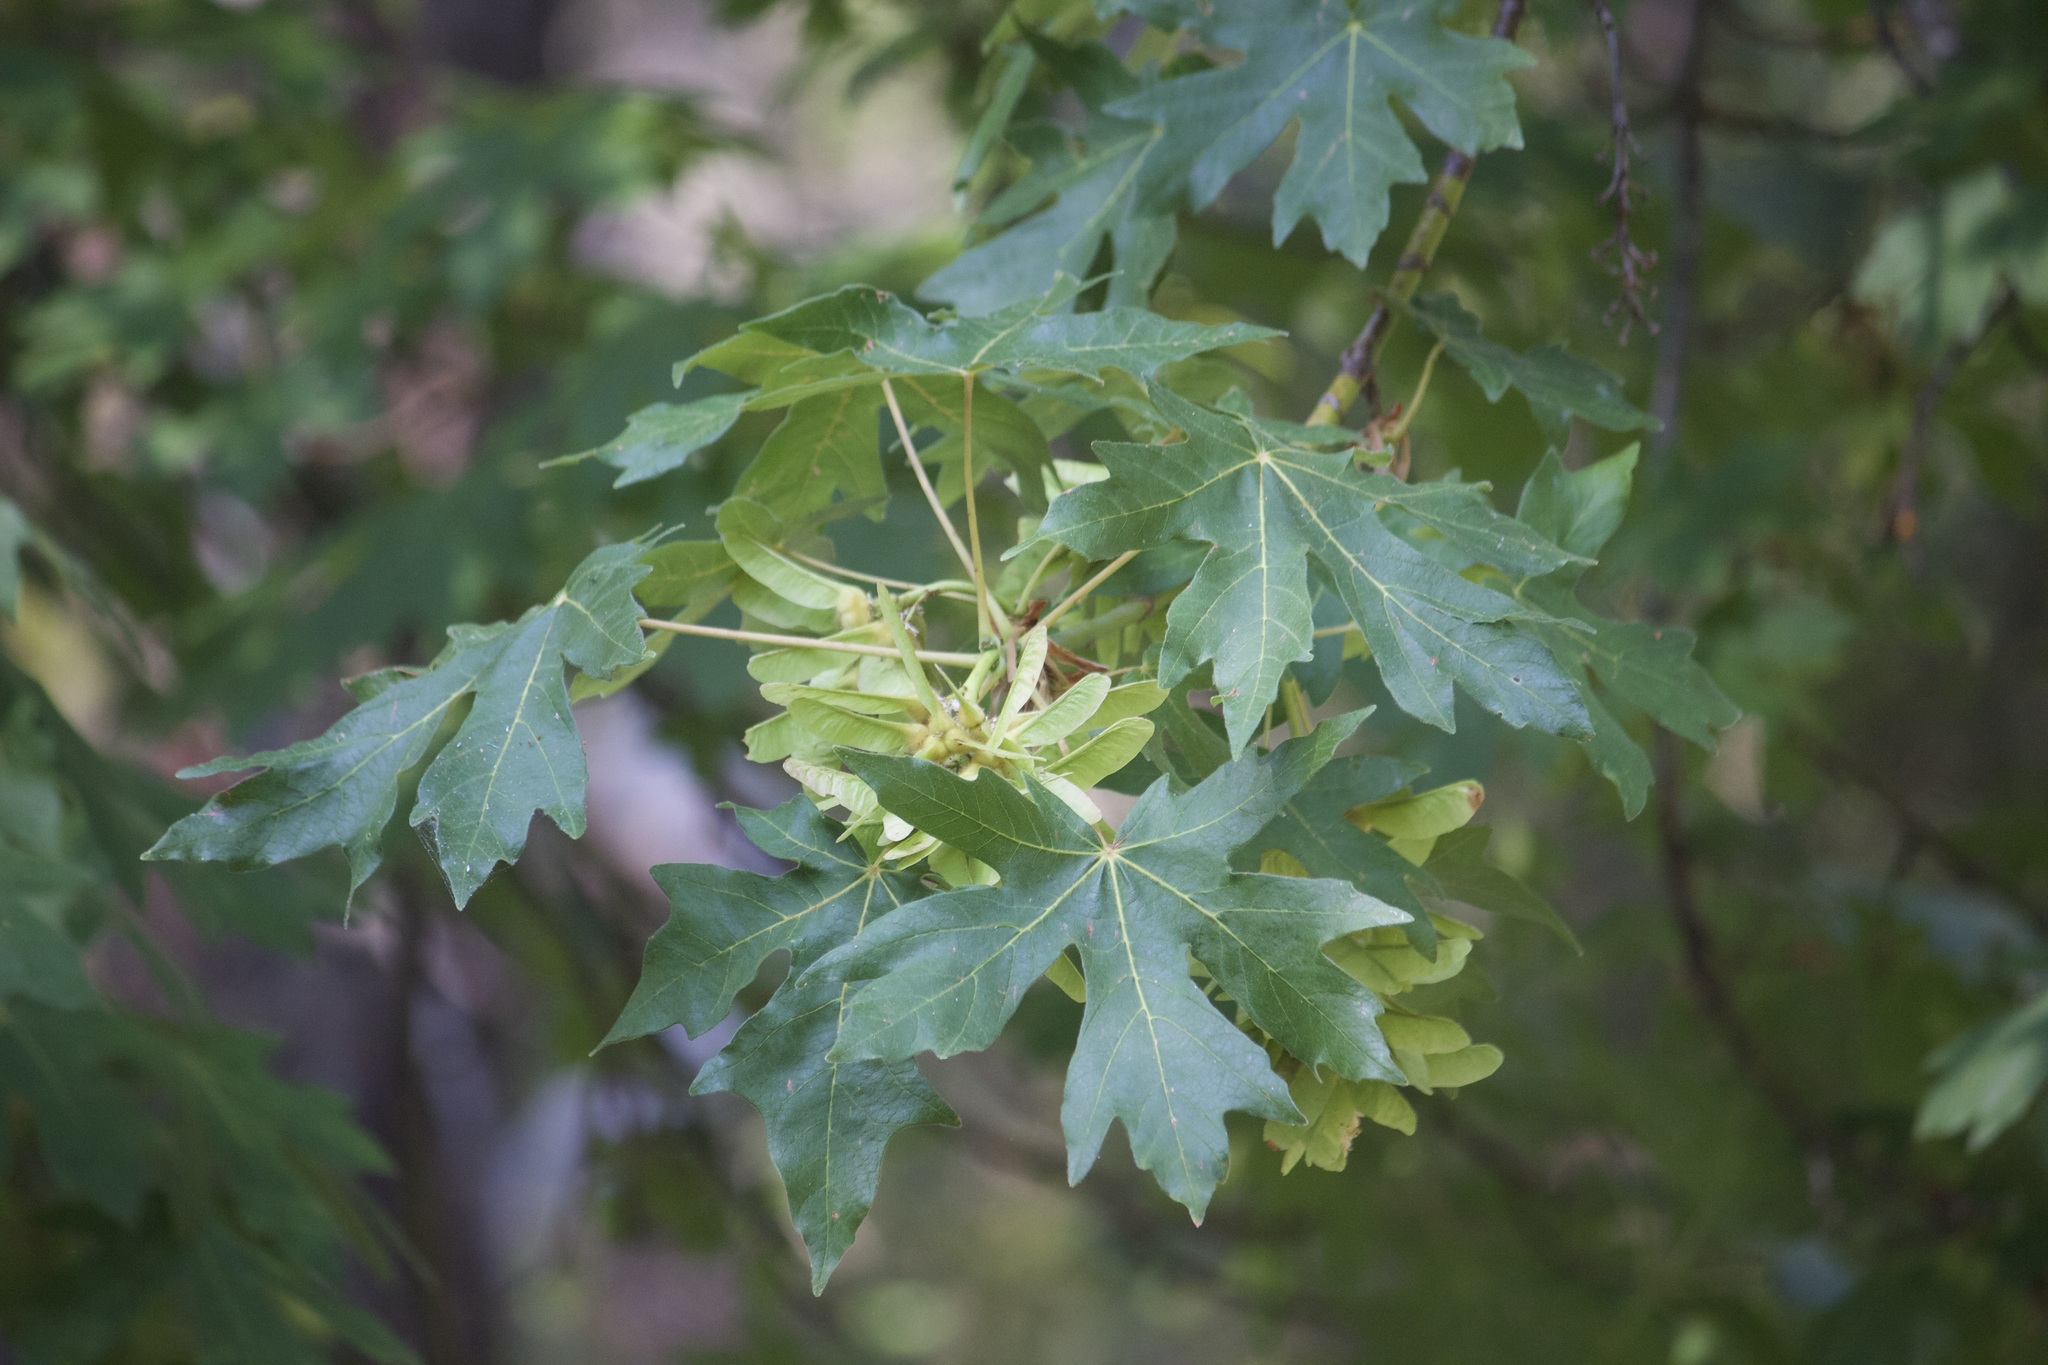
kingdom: Plantae
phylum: Tracheophyta
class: Magnoliopsida
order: Sapindales
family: Sapindaceae
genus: Acer
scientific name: Acer macrophyllum
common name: Oregon maple
